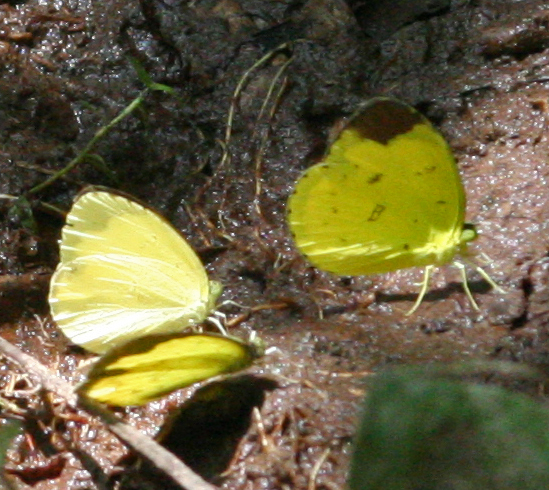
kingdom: Animalia
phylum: Arthropoda
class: Insecta
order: Lepidoptera
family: Pieridae
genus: Eurema
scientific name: Eurema sari
